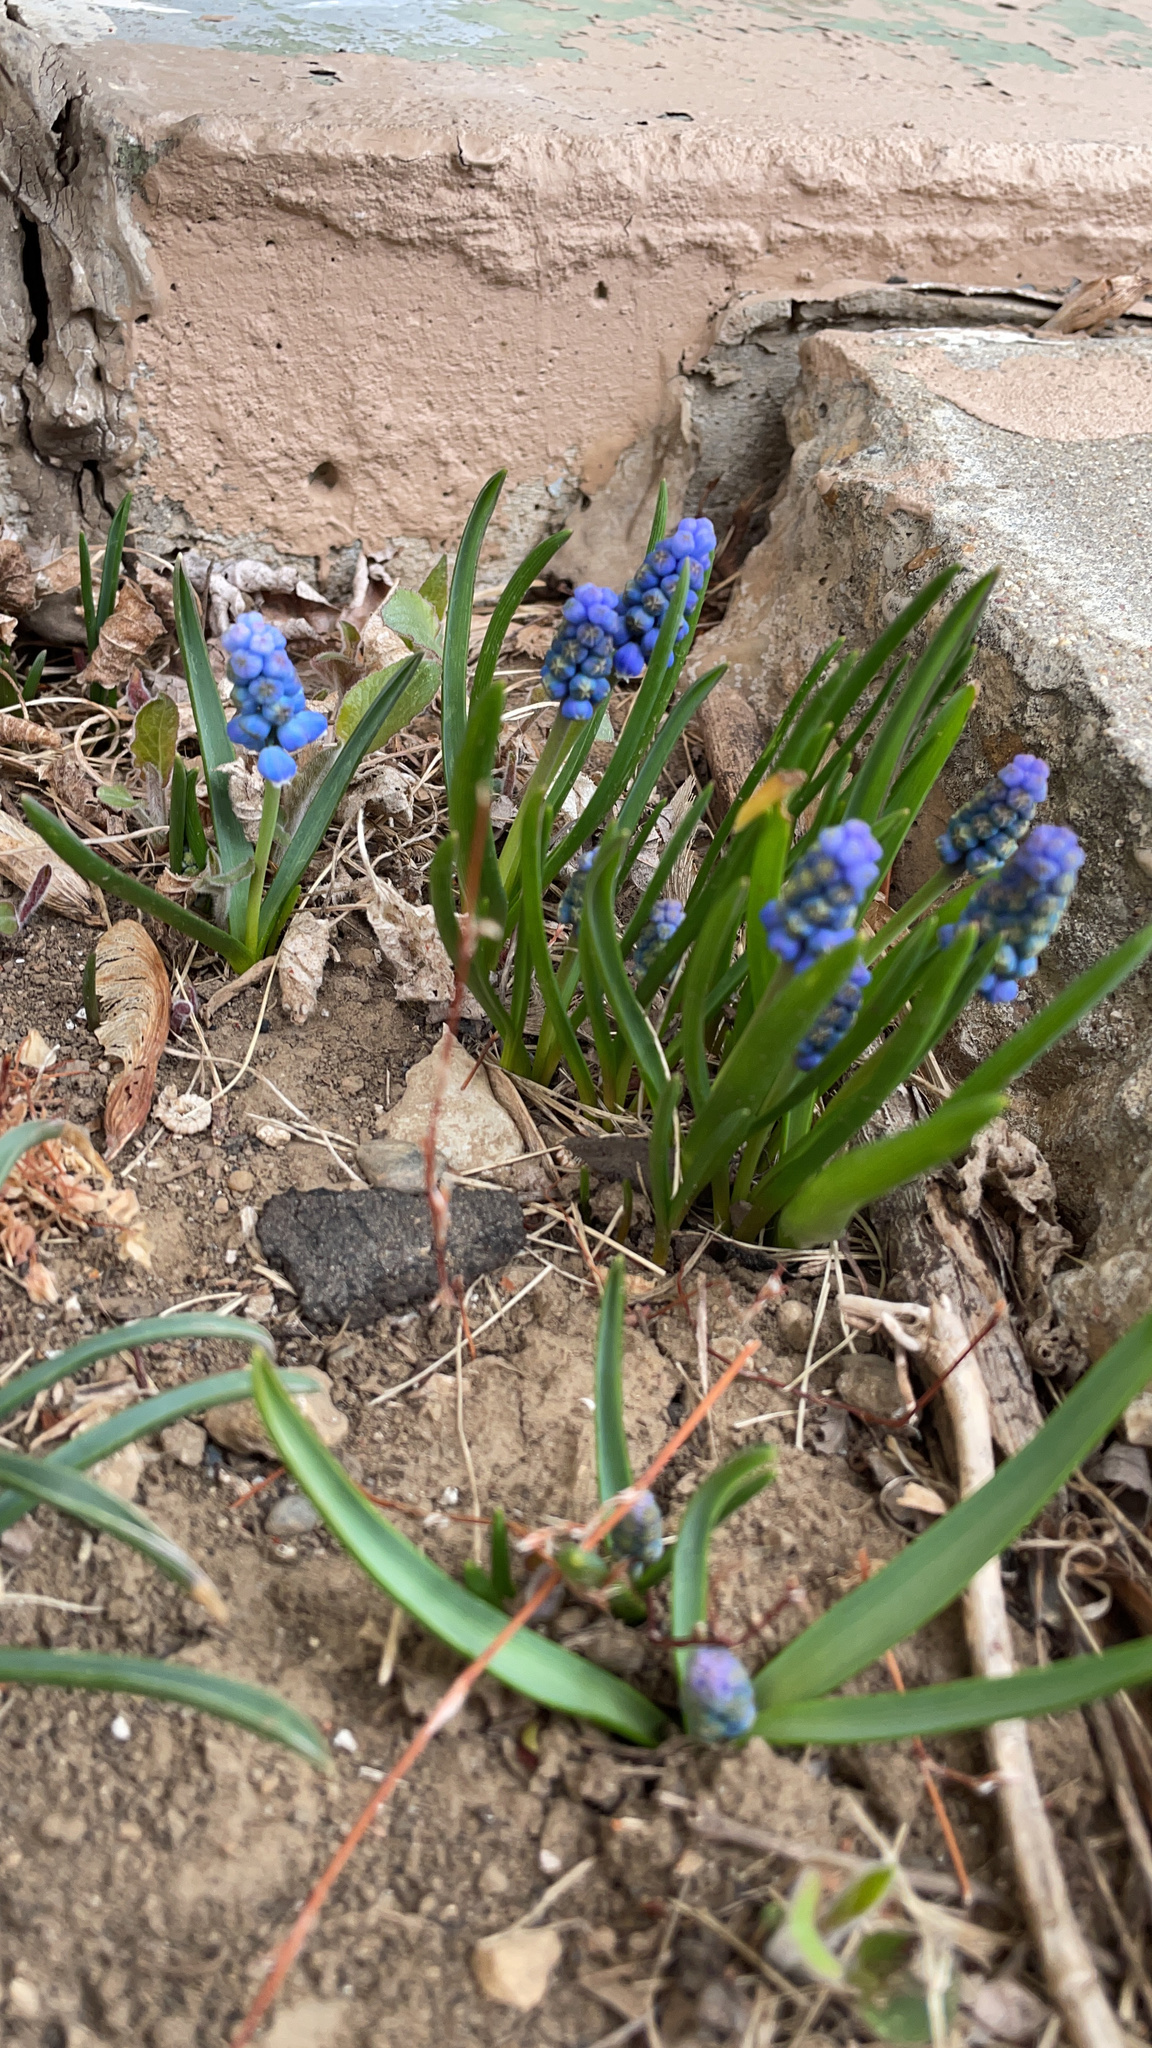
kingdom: Plantae
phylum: Tracheophyta
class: Liliopsida
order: Asparagales
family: Asparagaceae
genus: Muscari
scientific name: Muscari botryoides
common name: Compact grape-hyacinth
